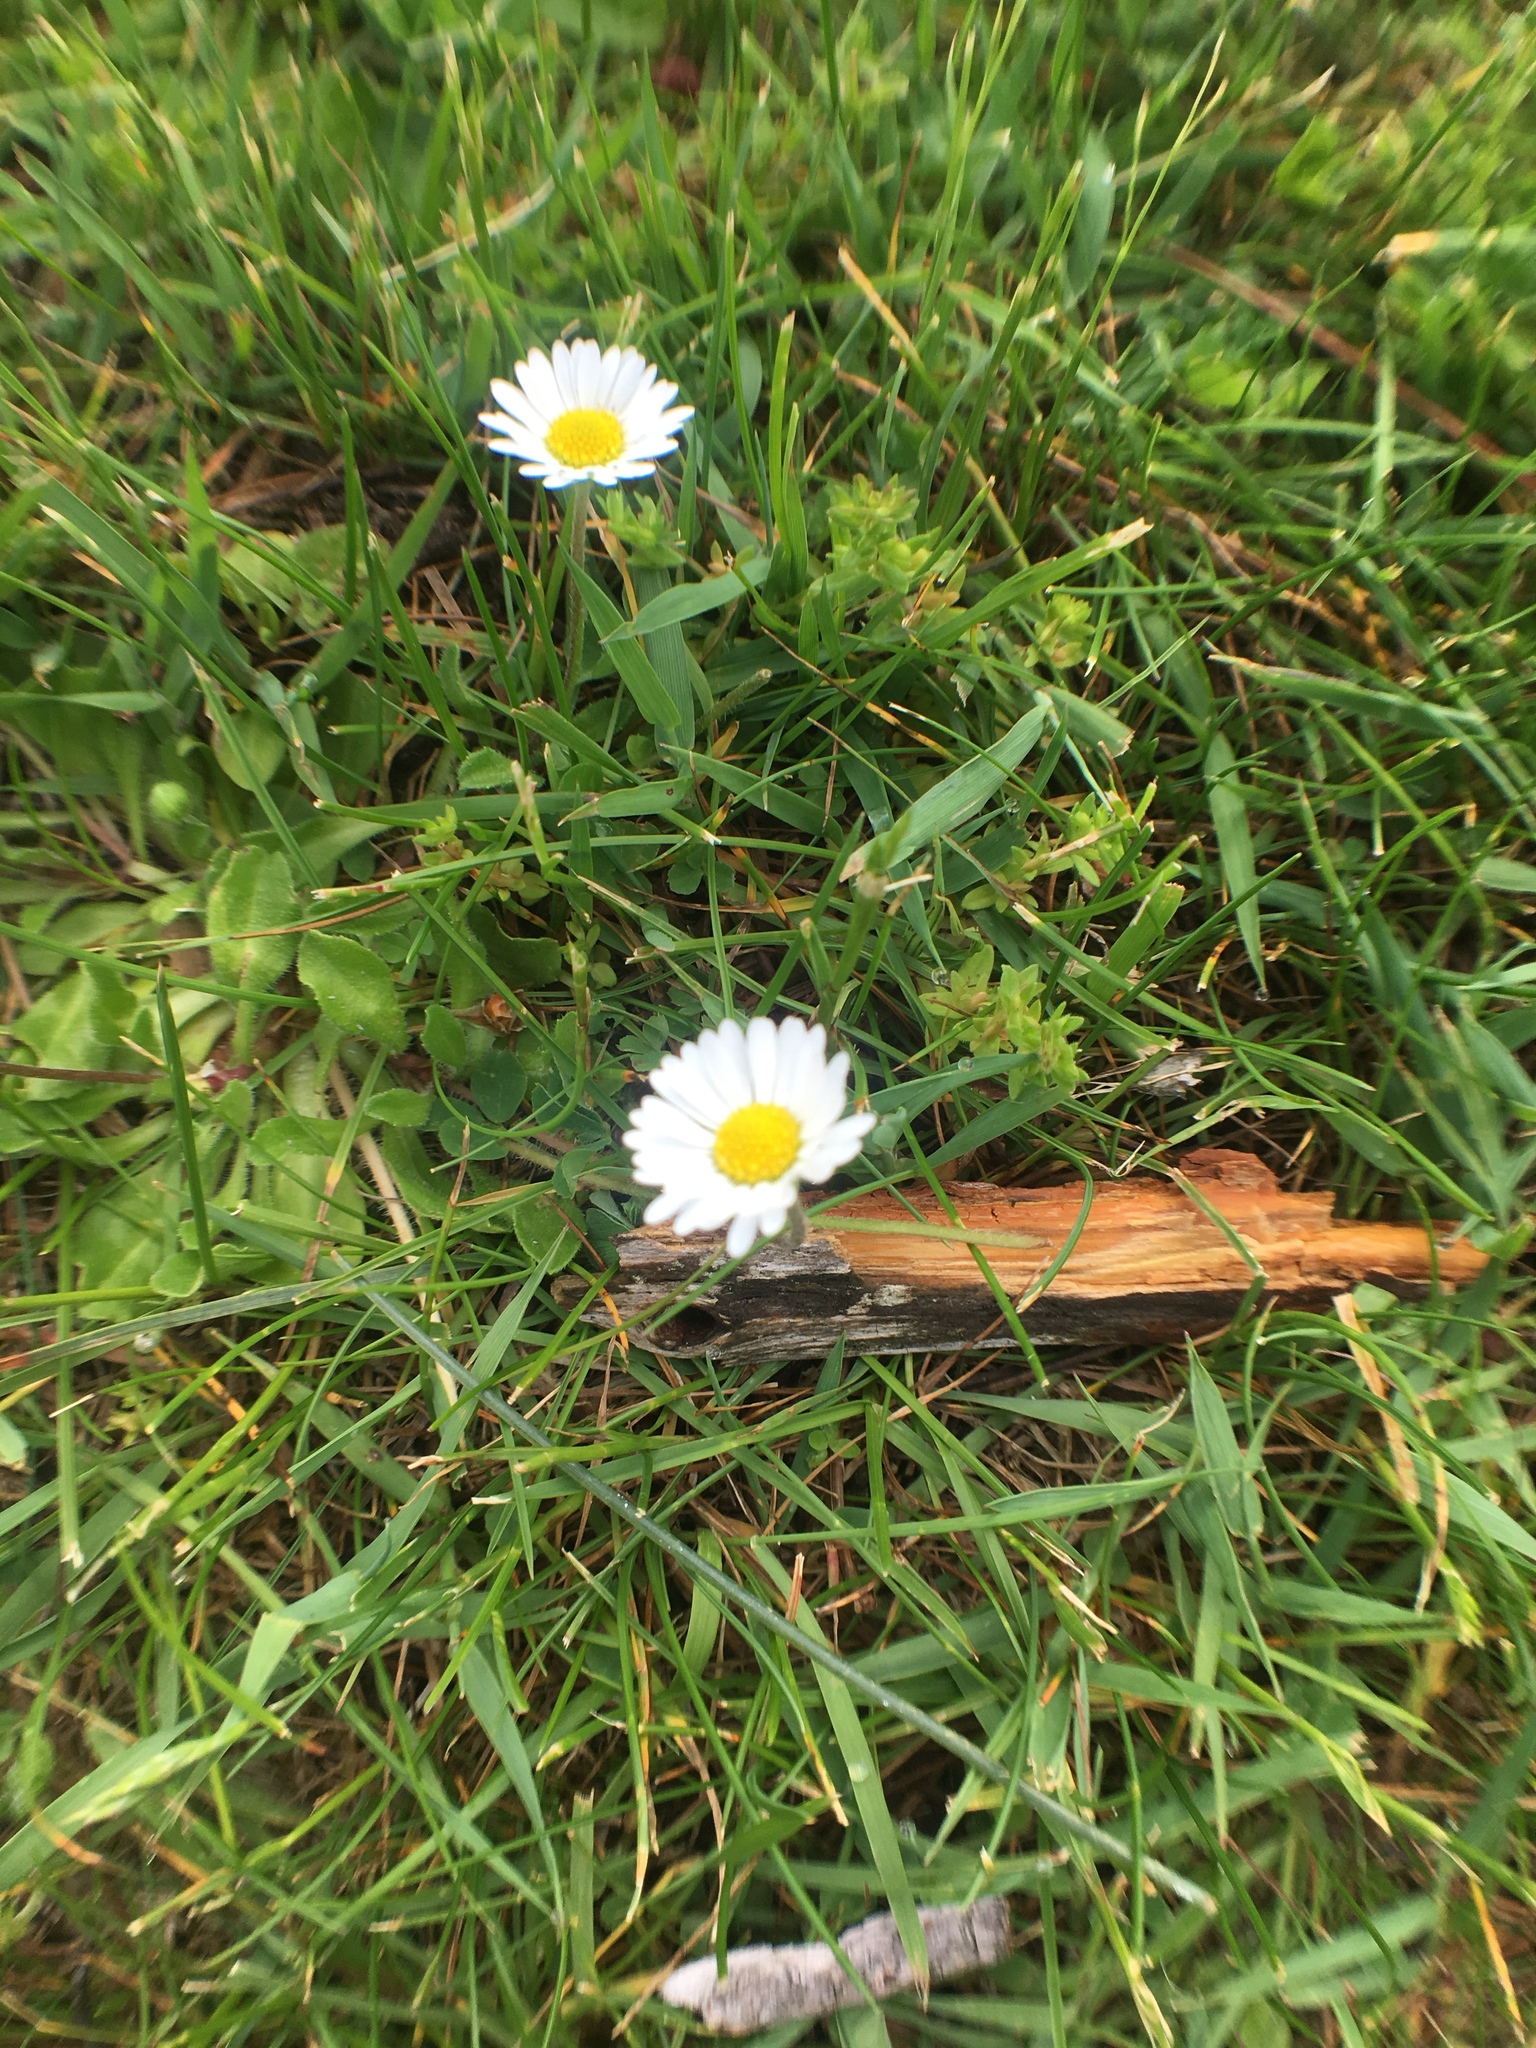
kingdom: Plantae
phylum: Tracheophyta
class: Magnoliopsida
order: Asterales
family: Asteraceae
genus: Bellis
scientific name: Bellis perennis
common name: Lawndaisy
